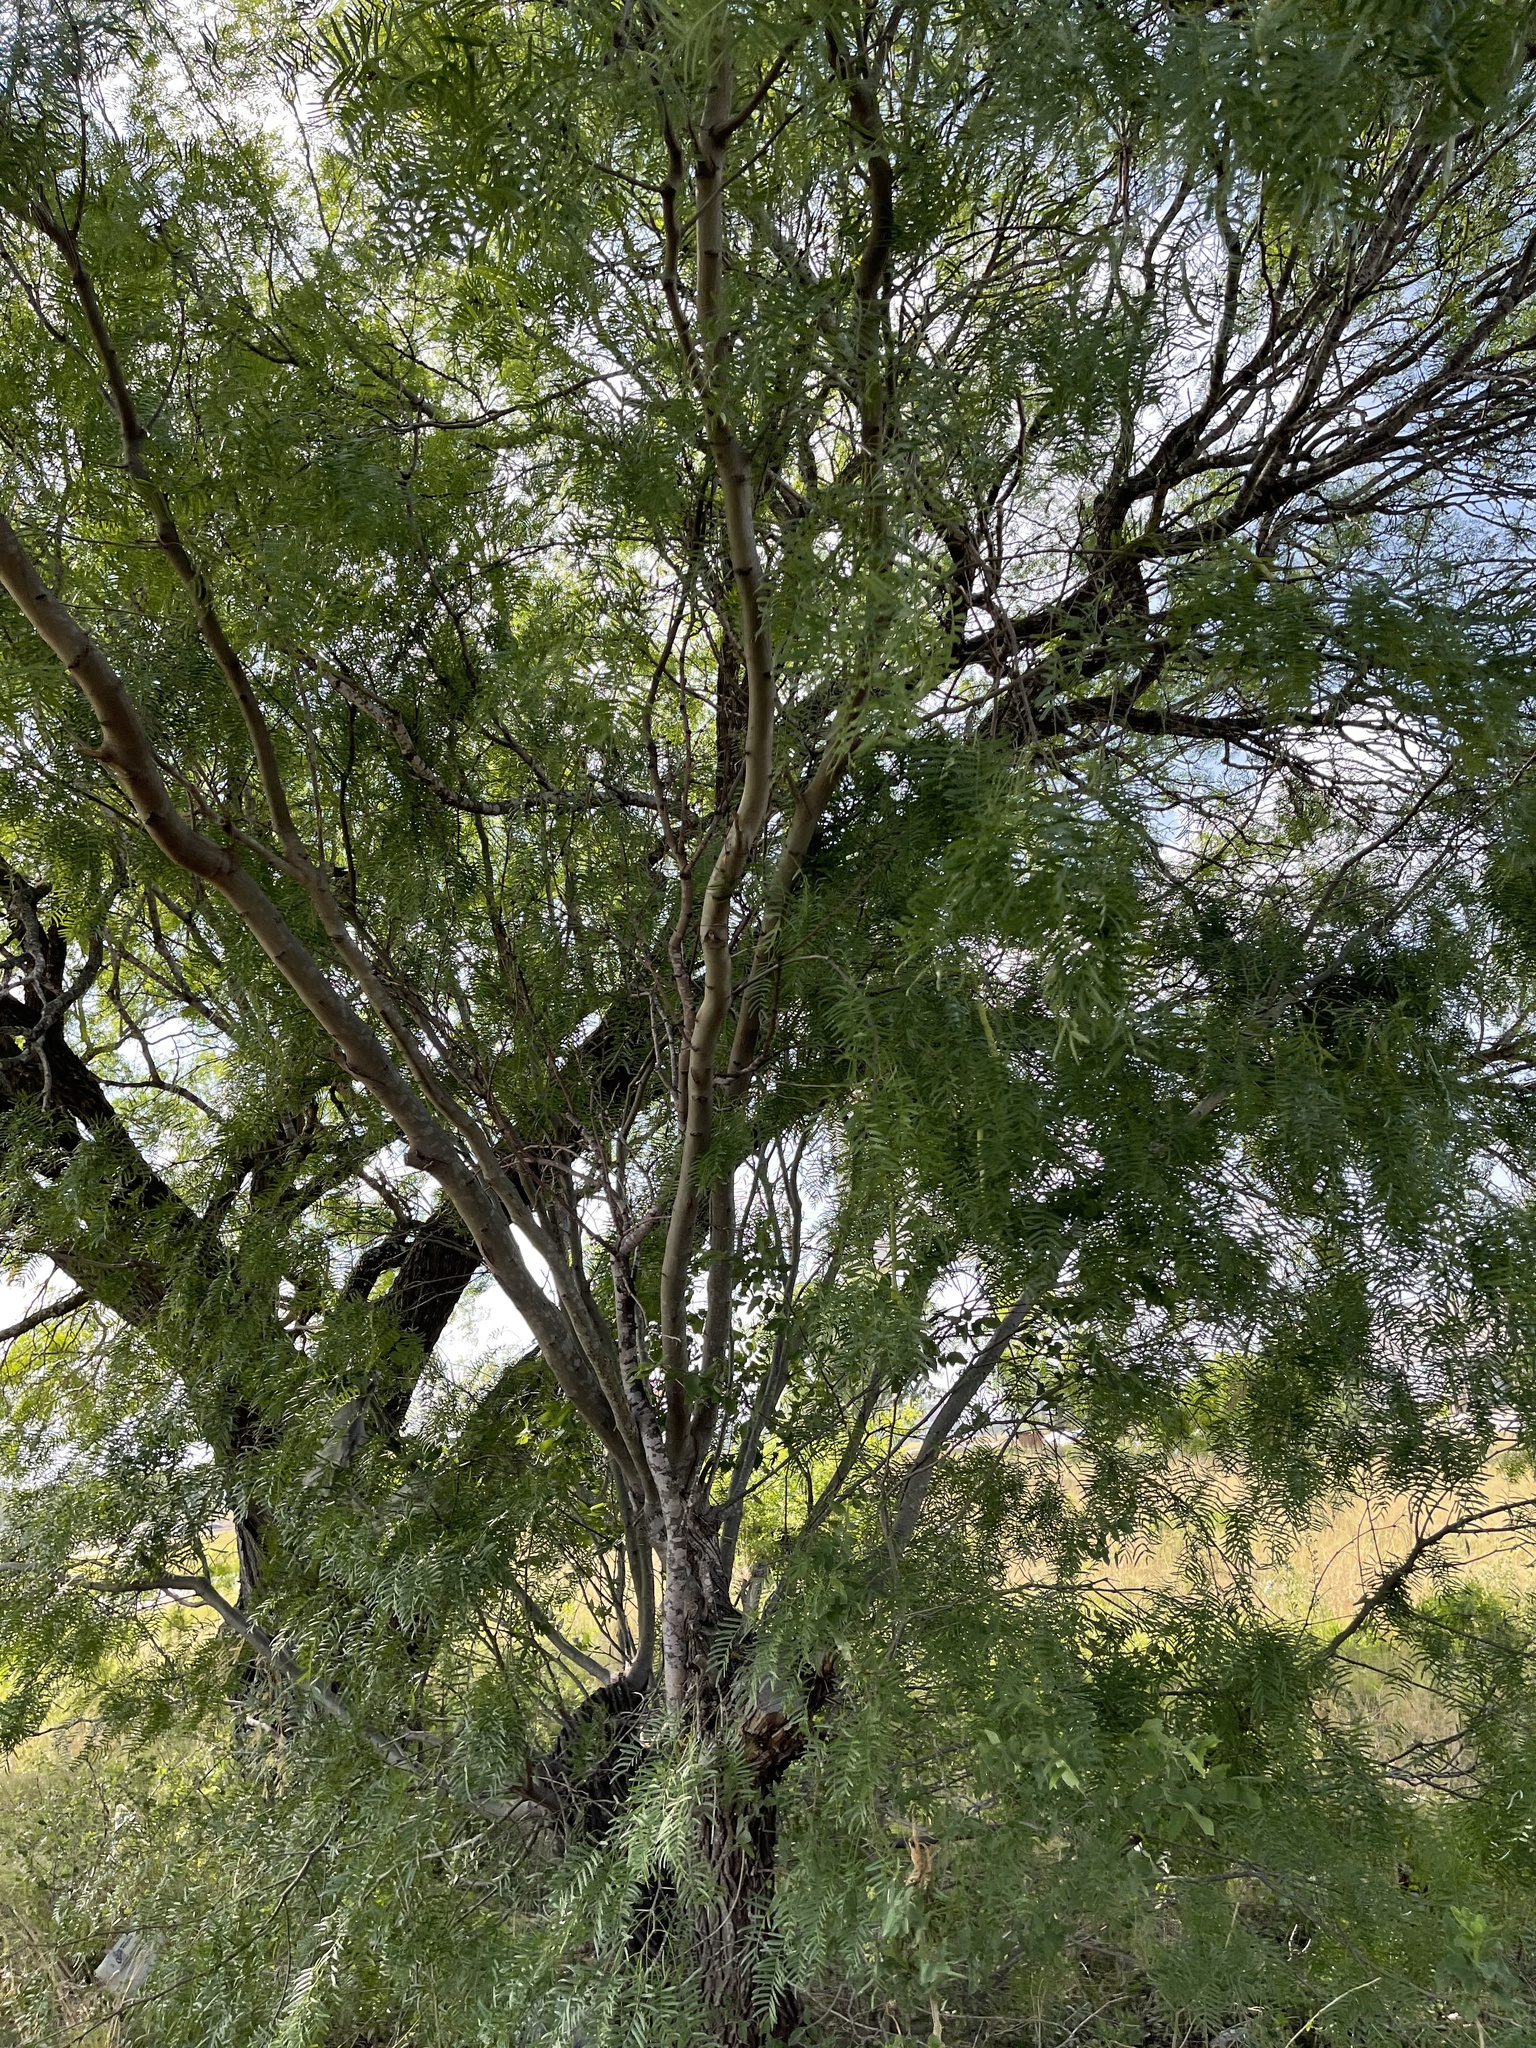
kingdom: Plantae
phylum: Tracheophyta
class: Magnoliopsida
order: Fabales
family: Fabaceae
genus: Prosopis
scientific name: Prosopis glandulosa
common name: Honey mesquite
